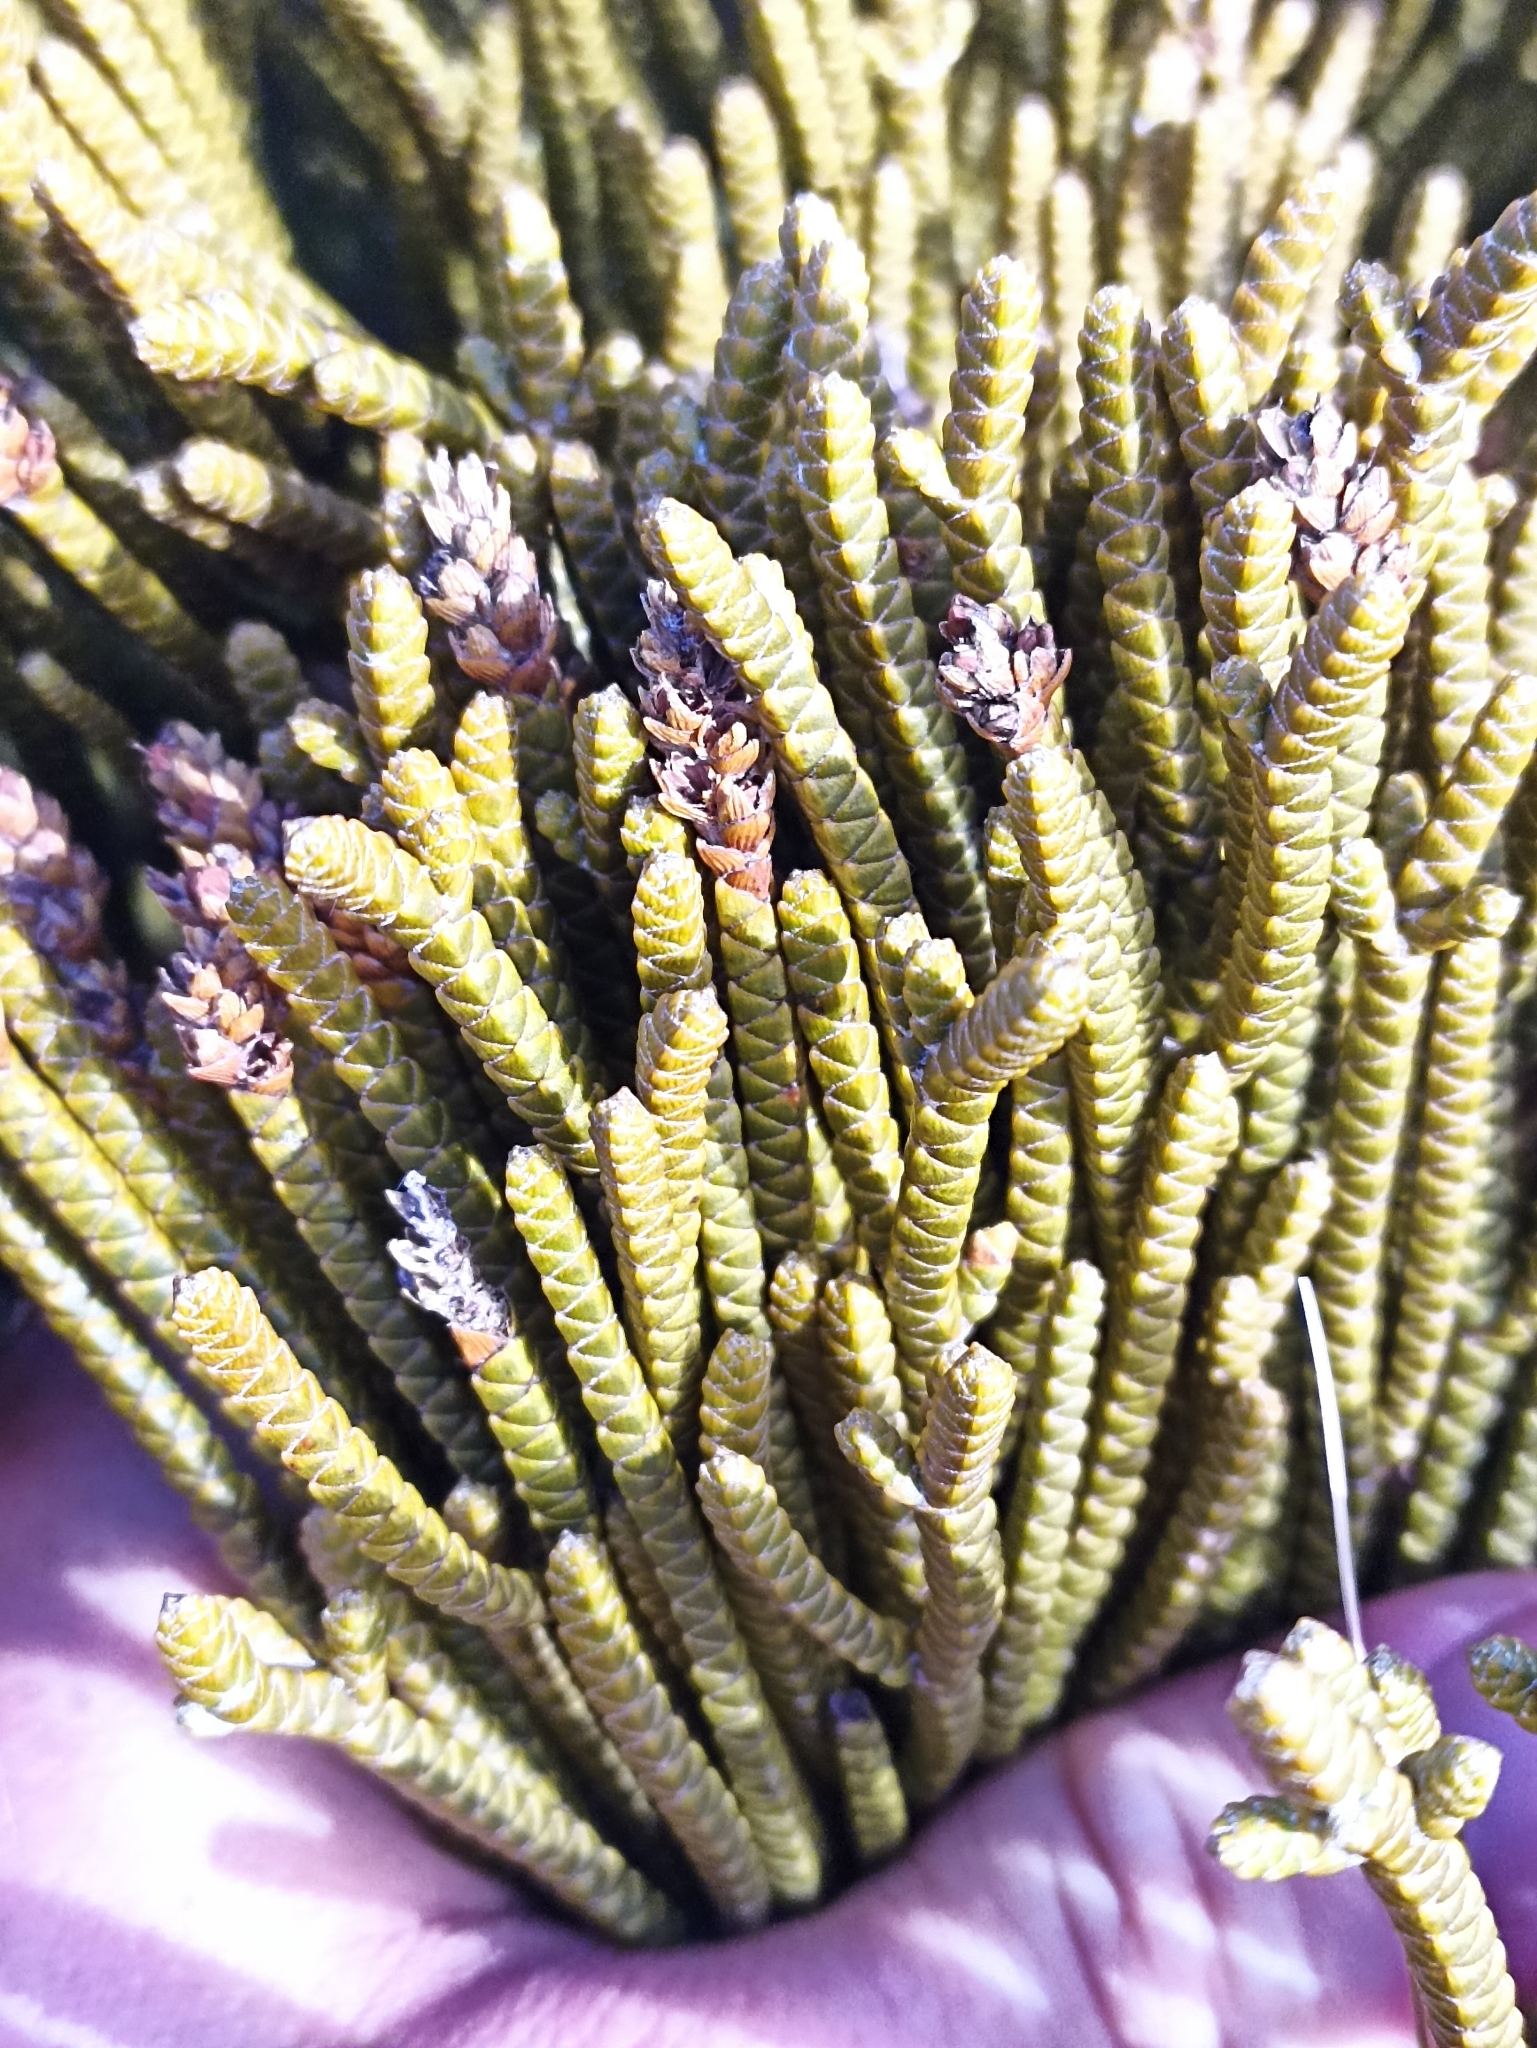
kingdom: Plantae
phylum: Tracheophyta
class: Magnoliopsida
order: Lamiales
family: Plantaginaceae
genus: Veronica
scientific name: Veronica lycopodioides
